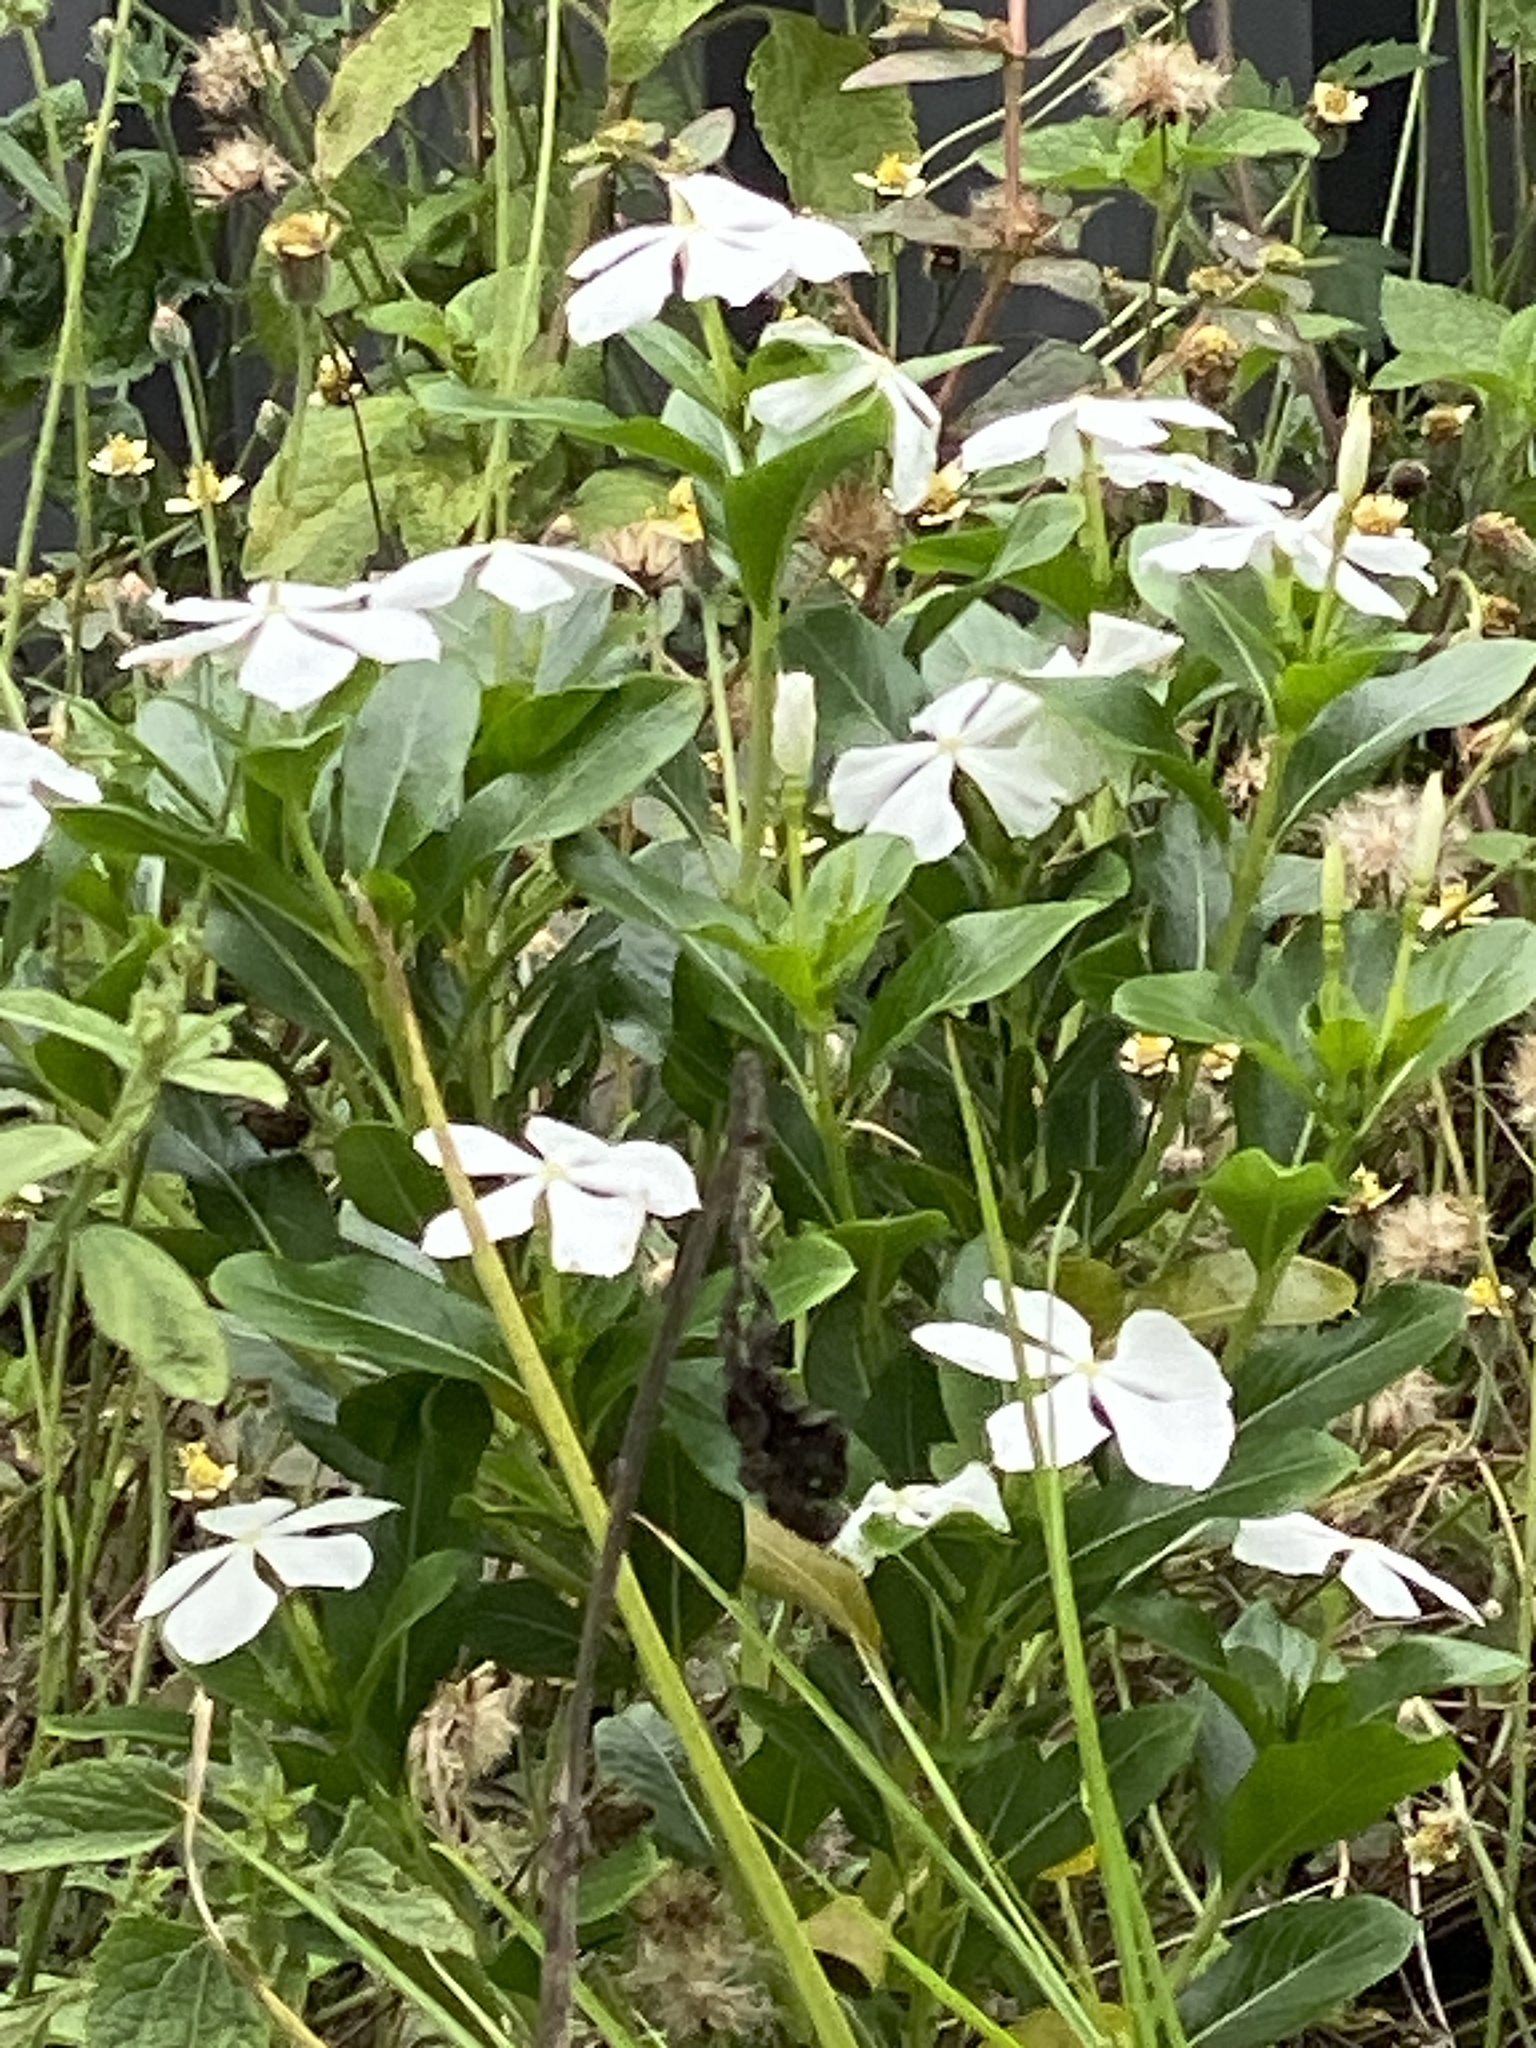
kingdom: Plantae
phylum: Tracheophyta
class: Magnoliopsida
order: Gentianales
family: Apocynaceae
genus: Catharanthus
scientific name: Catharanthus roseus
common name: Madagascar periwinkle
